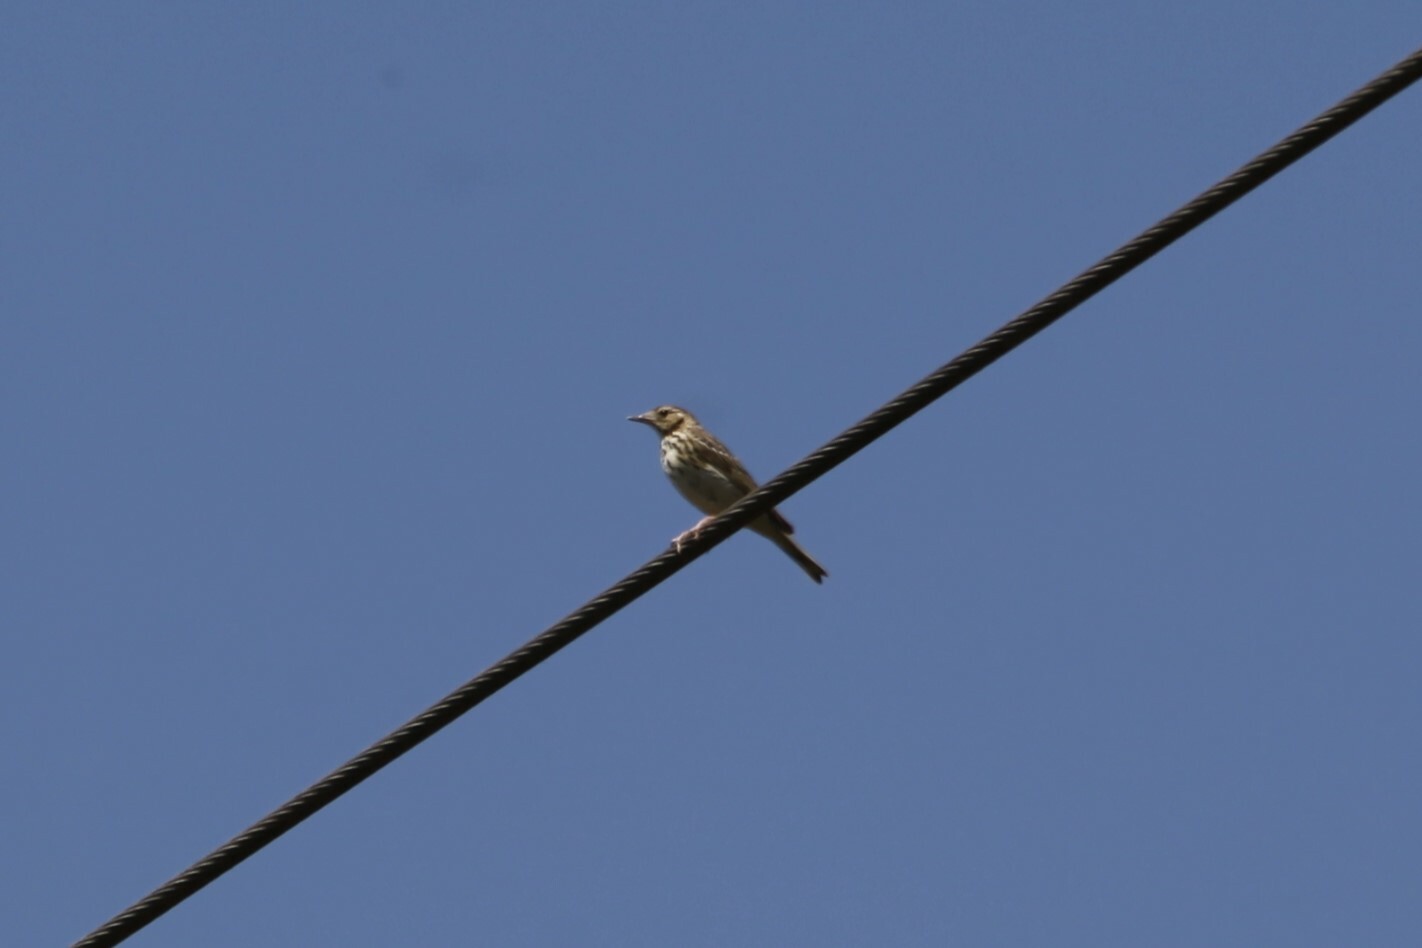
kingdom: Animalia
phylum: Chordata
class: Aves
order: Passeriformes
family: Motacillidae
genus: Anthus
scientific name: Anthus trivialis
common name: Tree pipit
